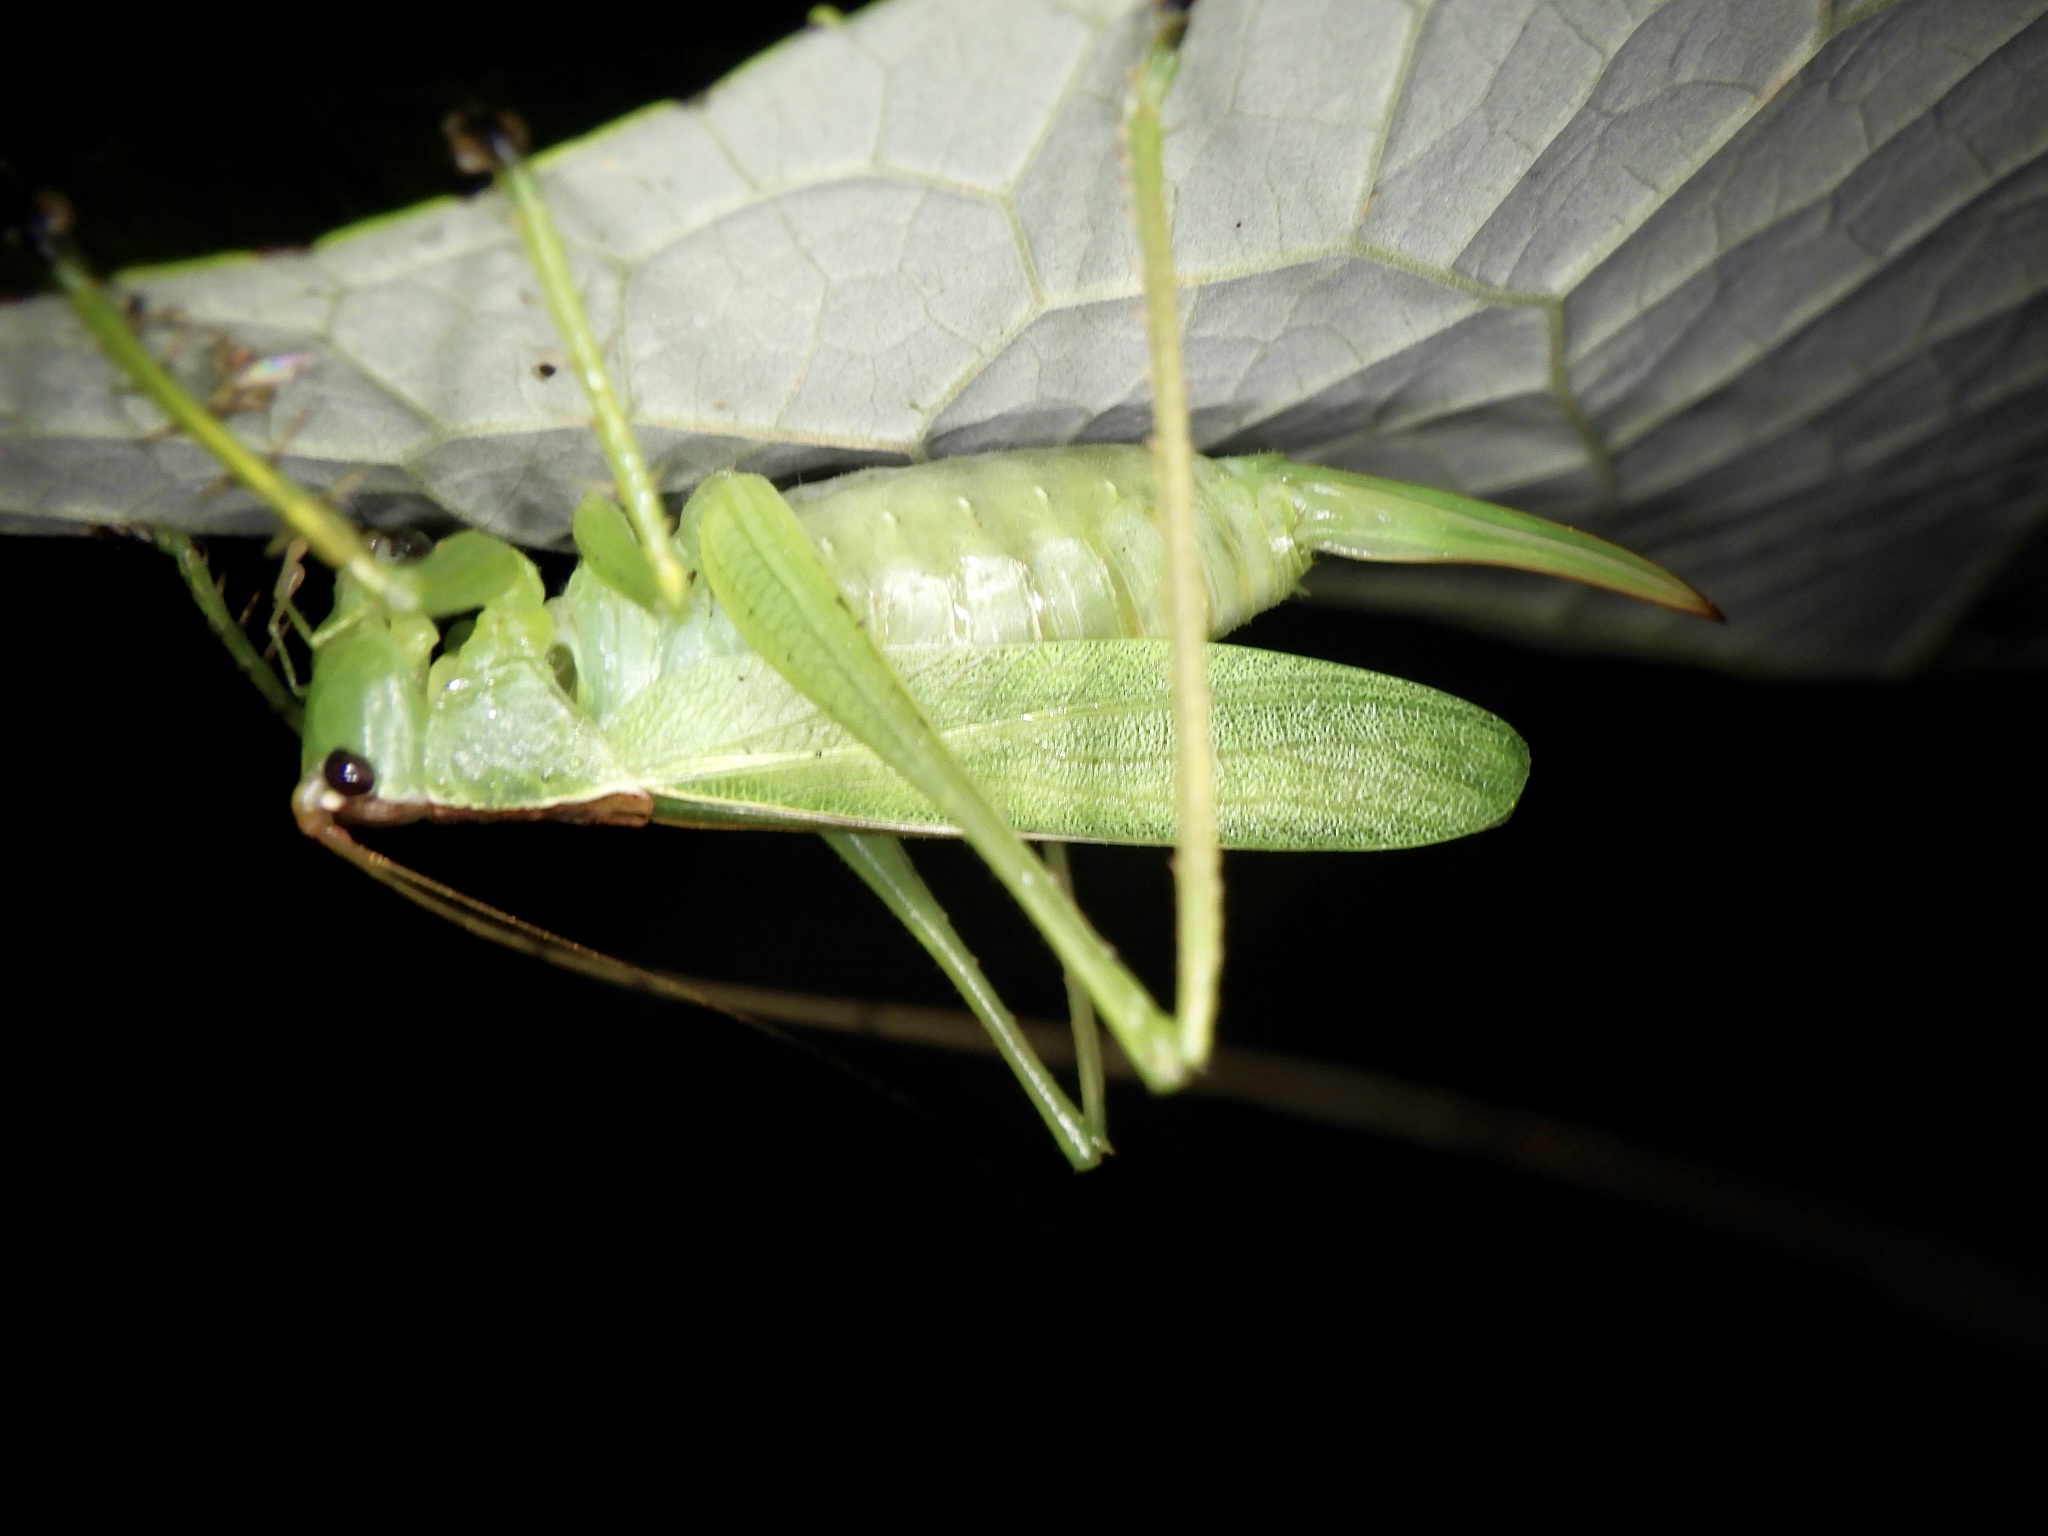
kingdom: Animalia
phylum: Arthropoda
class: Insecta
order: Orthoptera
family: Tettigoniidae
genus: Hexacentrus
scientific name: Hexacentrus hareyamai
